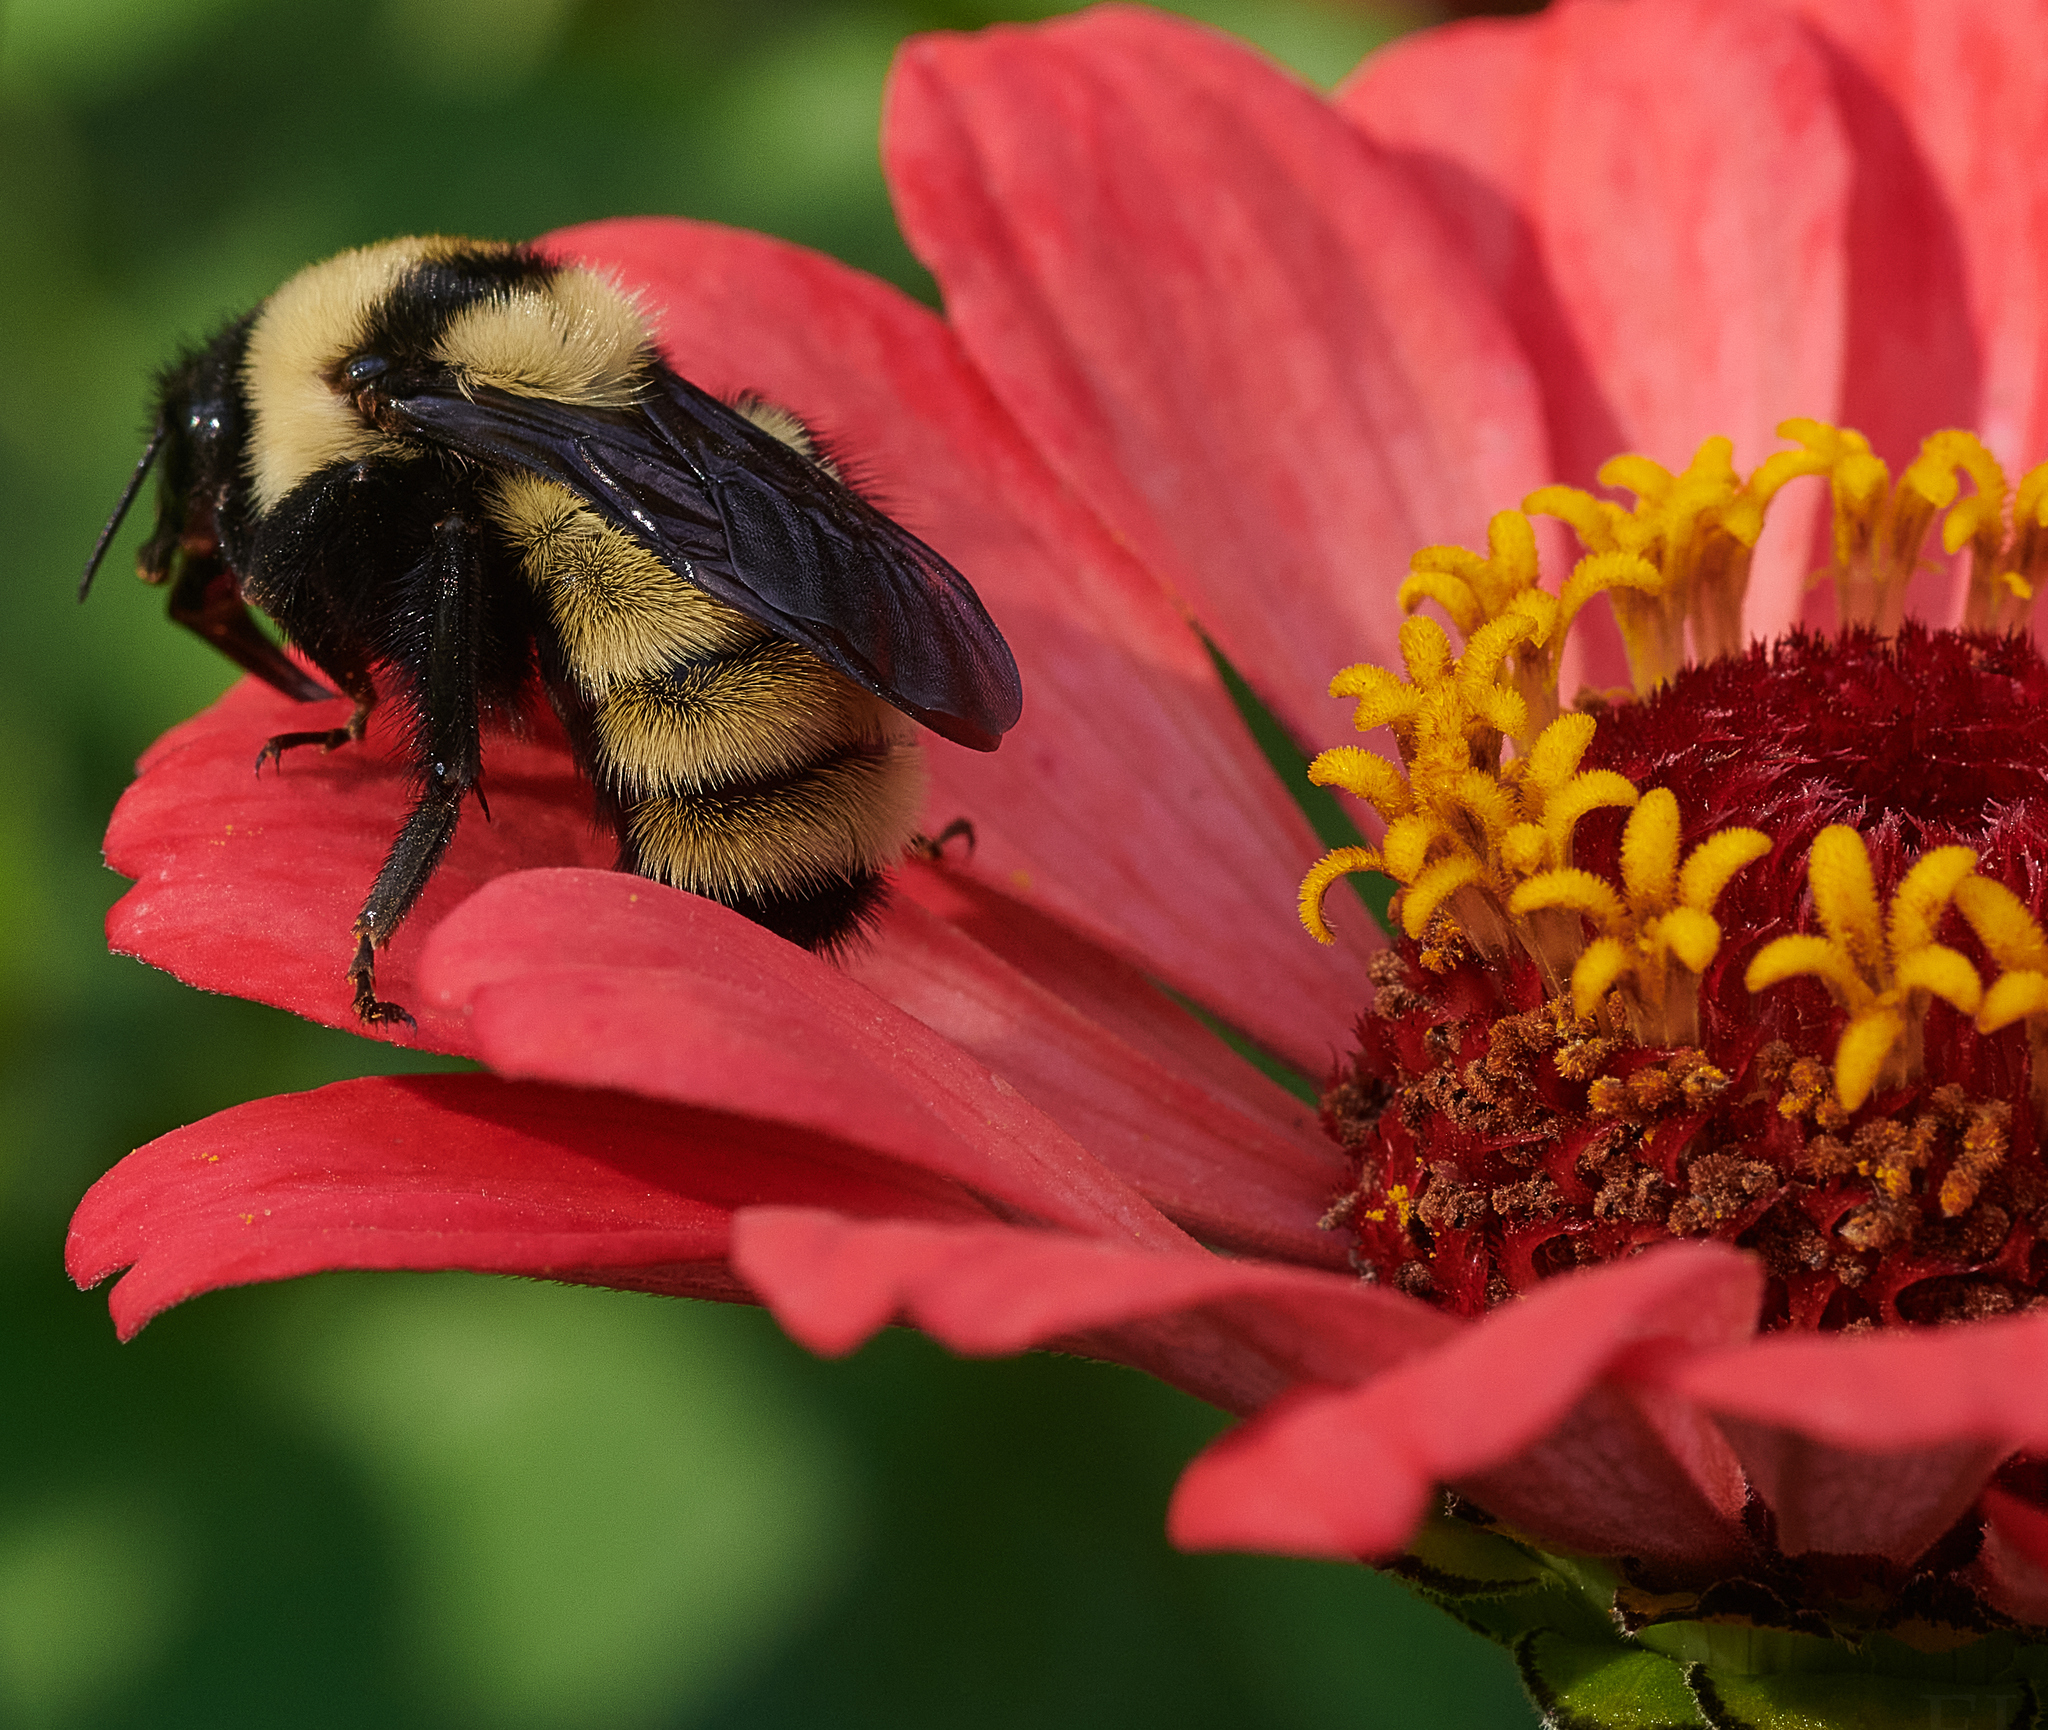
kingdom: Animalia
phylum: Arthropoda
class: Insecta
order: Hymenoptera
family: Apidae
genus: Bombus
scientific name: Bombus fervidus
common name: Yellow bumble bee
